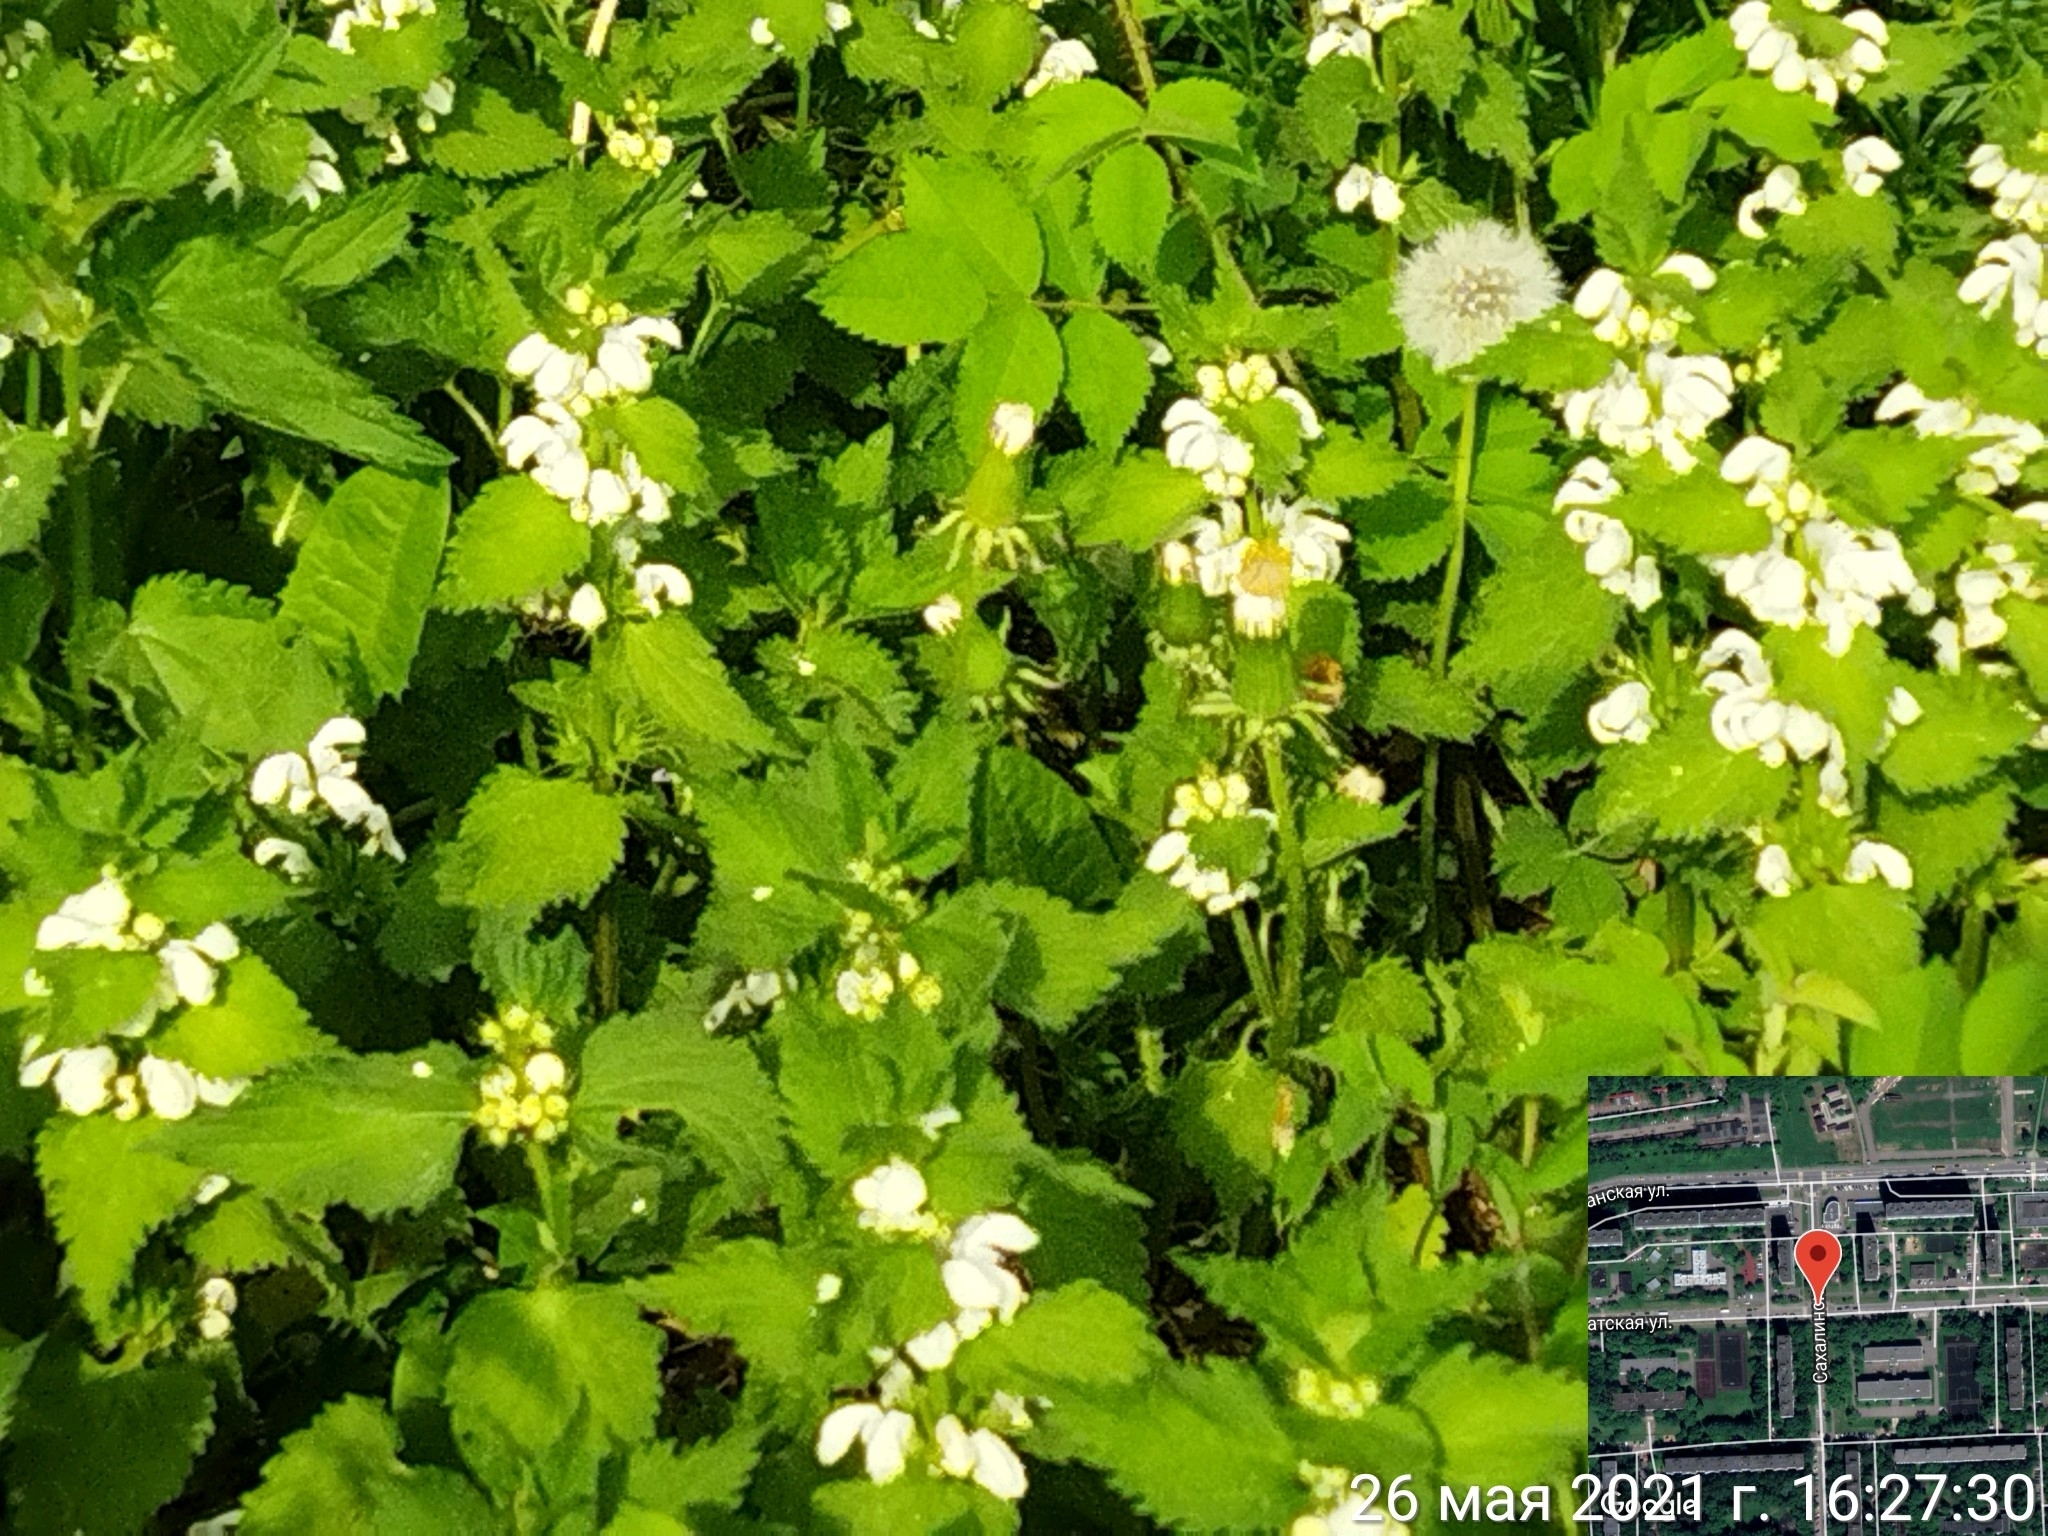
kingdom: Plantae
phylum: Tracheophyta
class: Magnoliopsida
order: Lamiales
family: Lamiaceae
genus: Lamium
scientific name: Lamium album
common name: White dead-nettle
